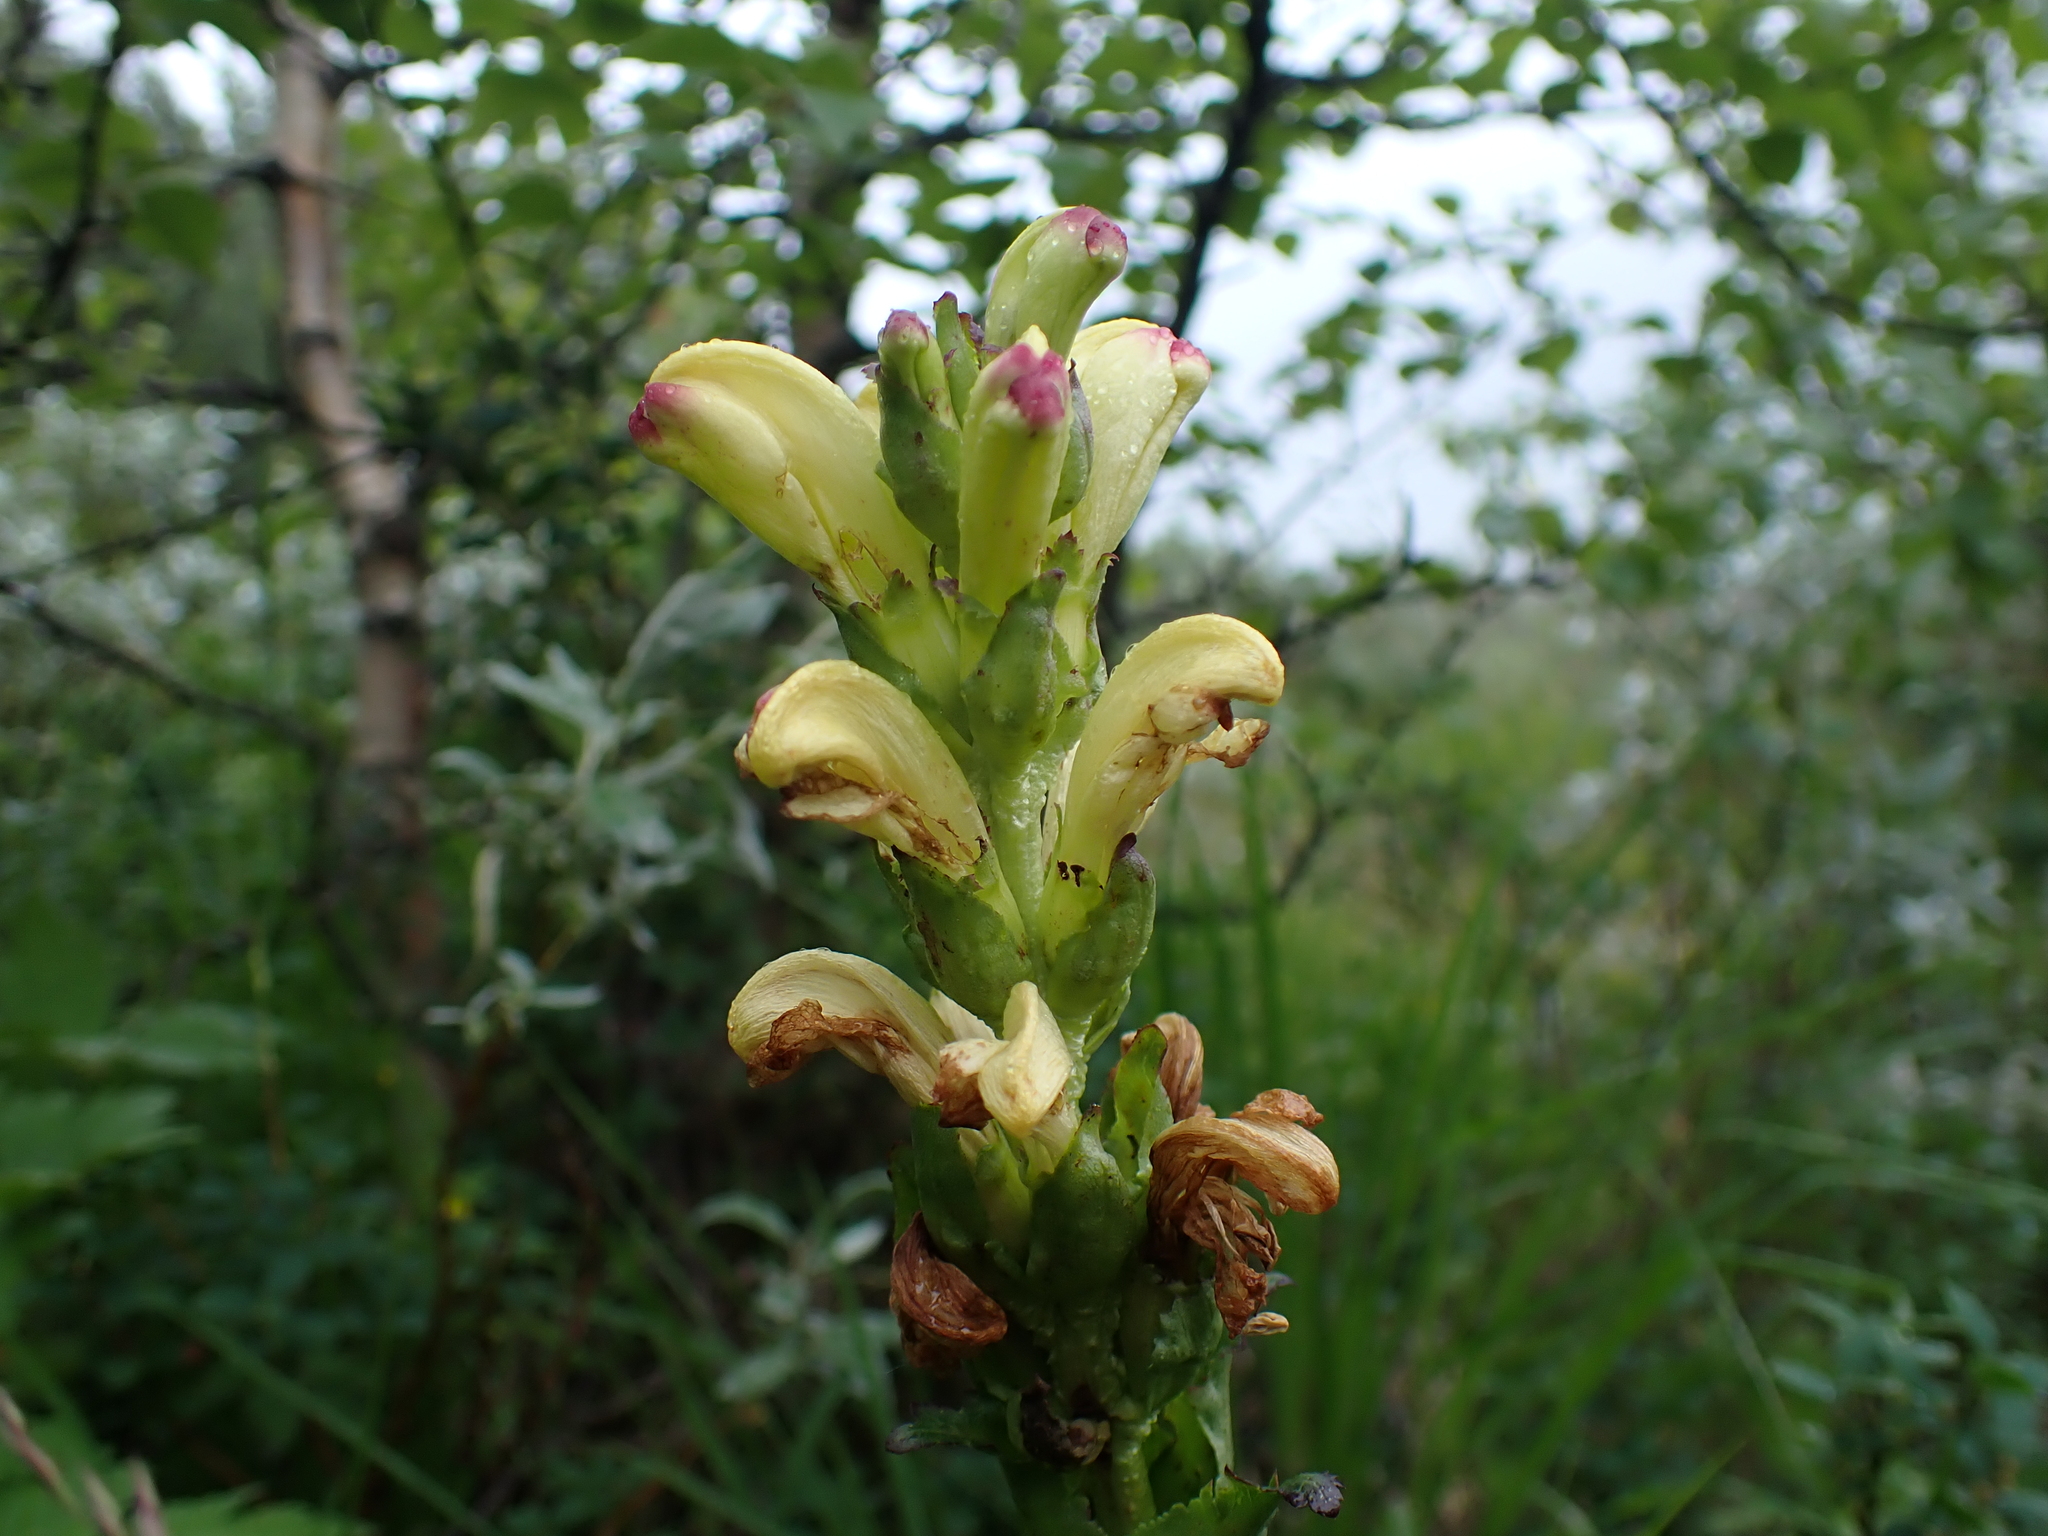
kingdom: Plantae
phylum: Tracheophyta
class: Magnoliopsida
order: Lamiales
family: Orobanchaceae
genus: Pedicularis
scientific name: Pedicularis sceptrum-carolinum
